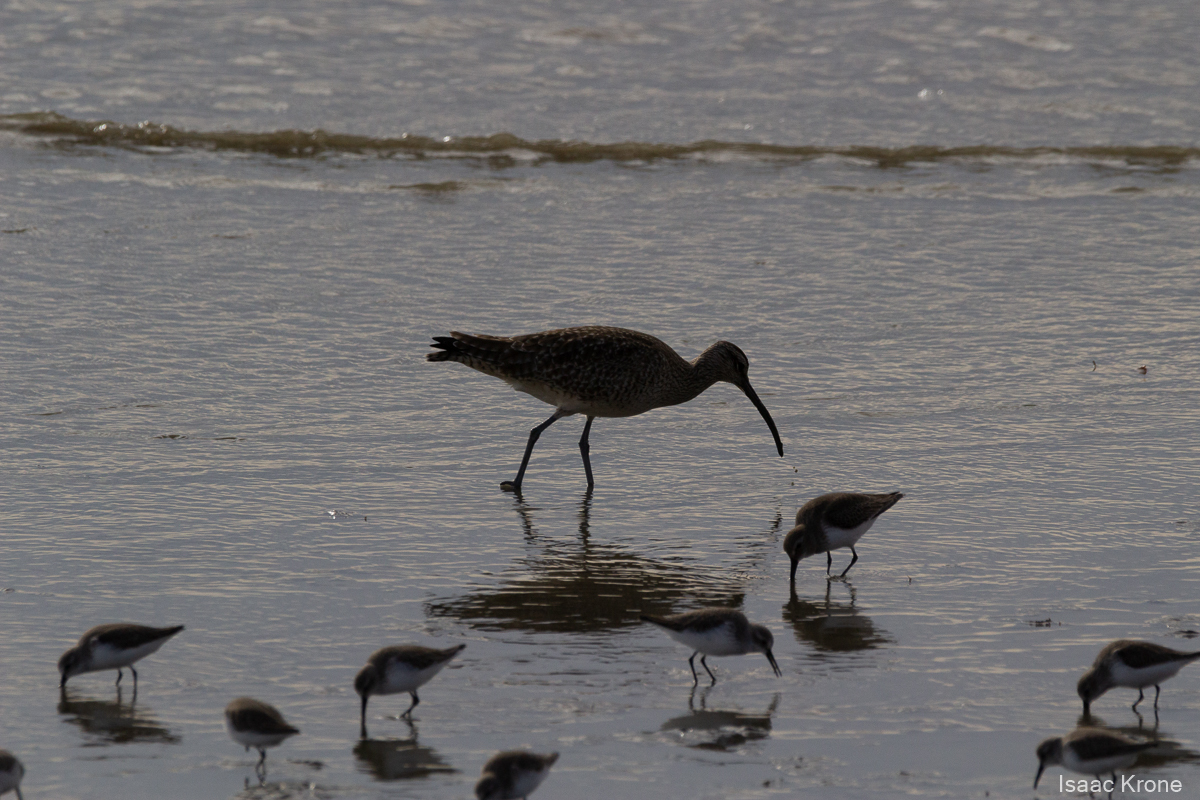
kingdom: Animalia
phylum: Chordata
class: Aves
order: Charadriiformes
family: Scolopacidae
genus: Numenius
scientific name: Numenius phaeopus
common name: Whimbrel
